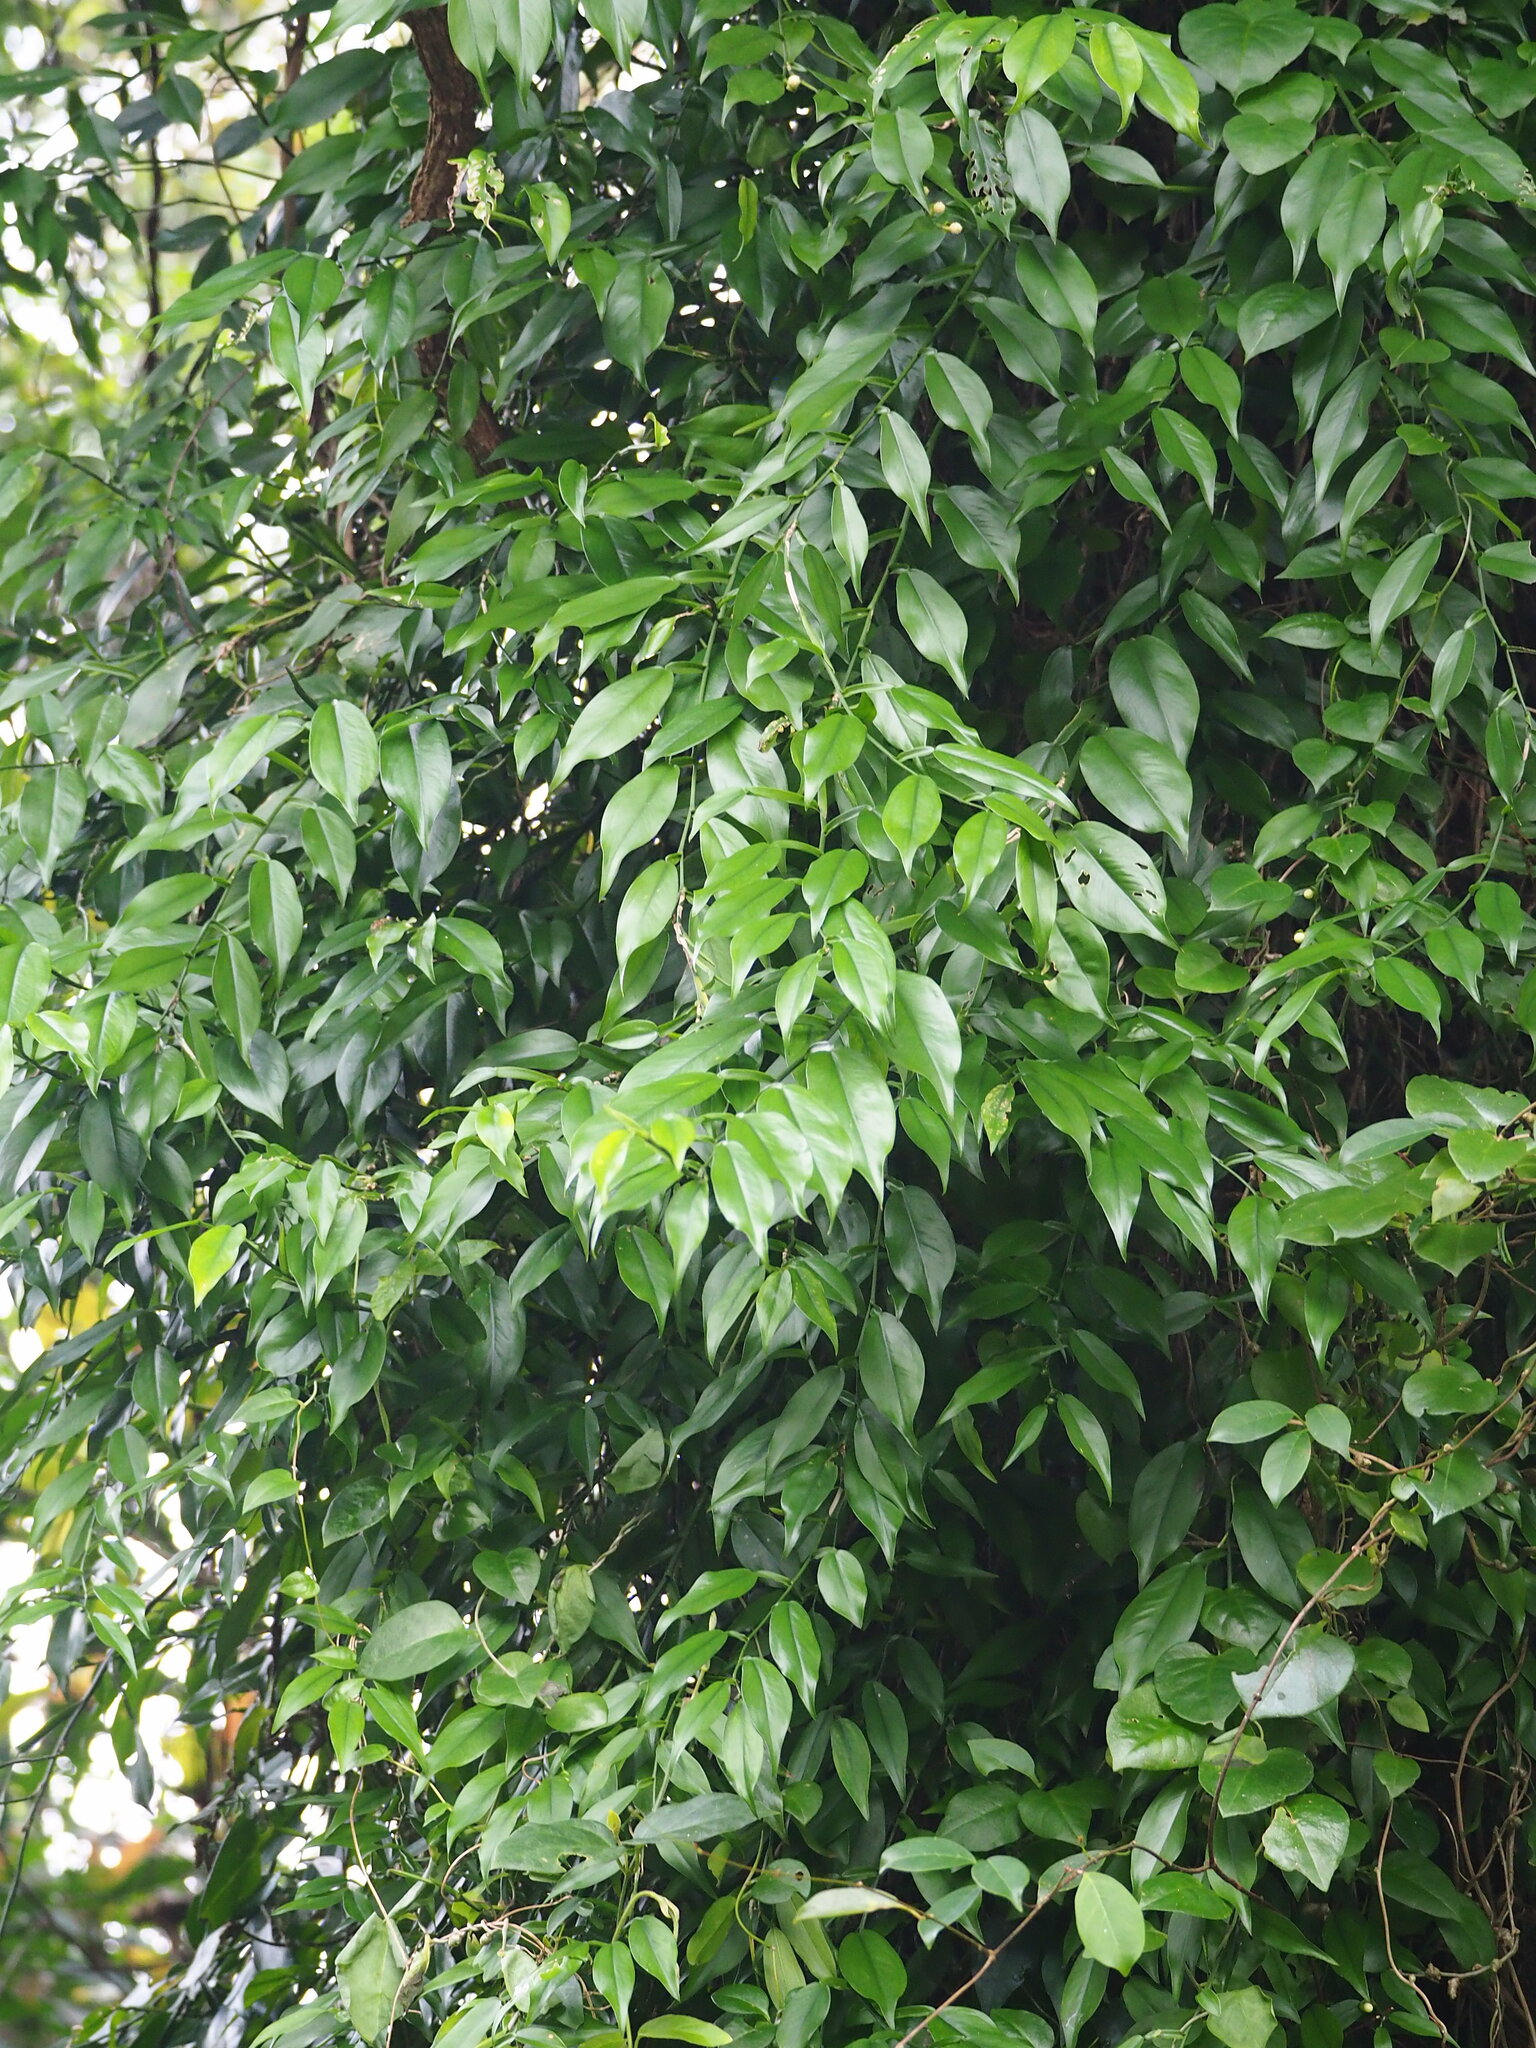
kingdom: Plantae
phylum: Tracheophyta
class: Liliopsida
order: Alismatales
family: Araceae
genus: Pothos
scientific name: Pothos chinensis
